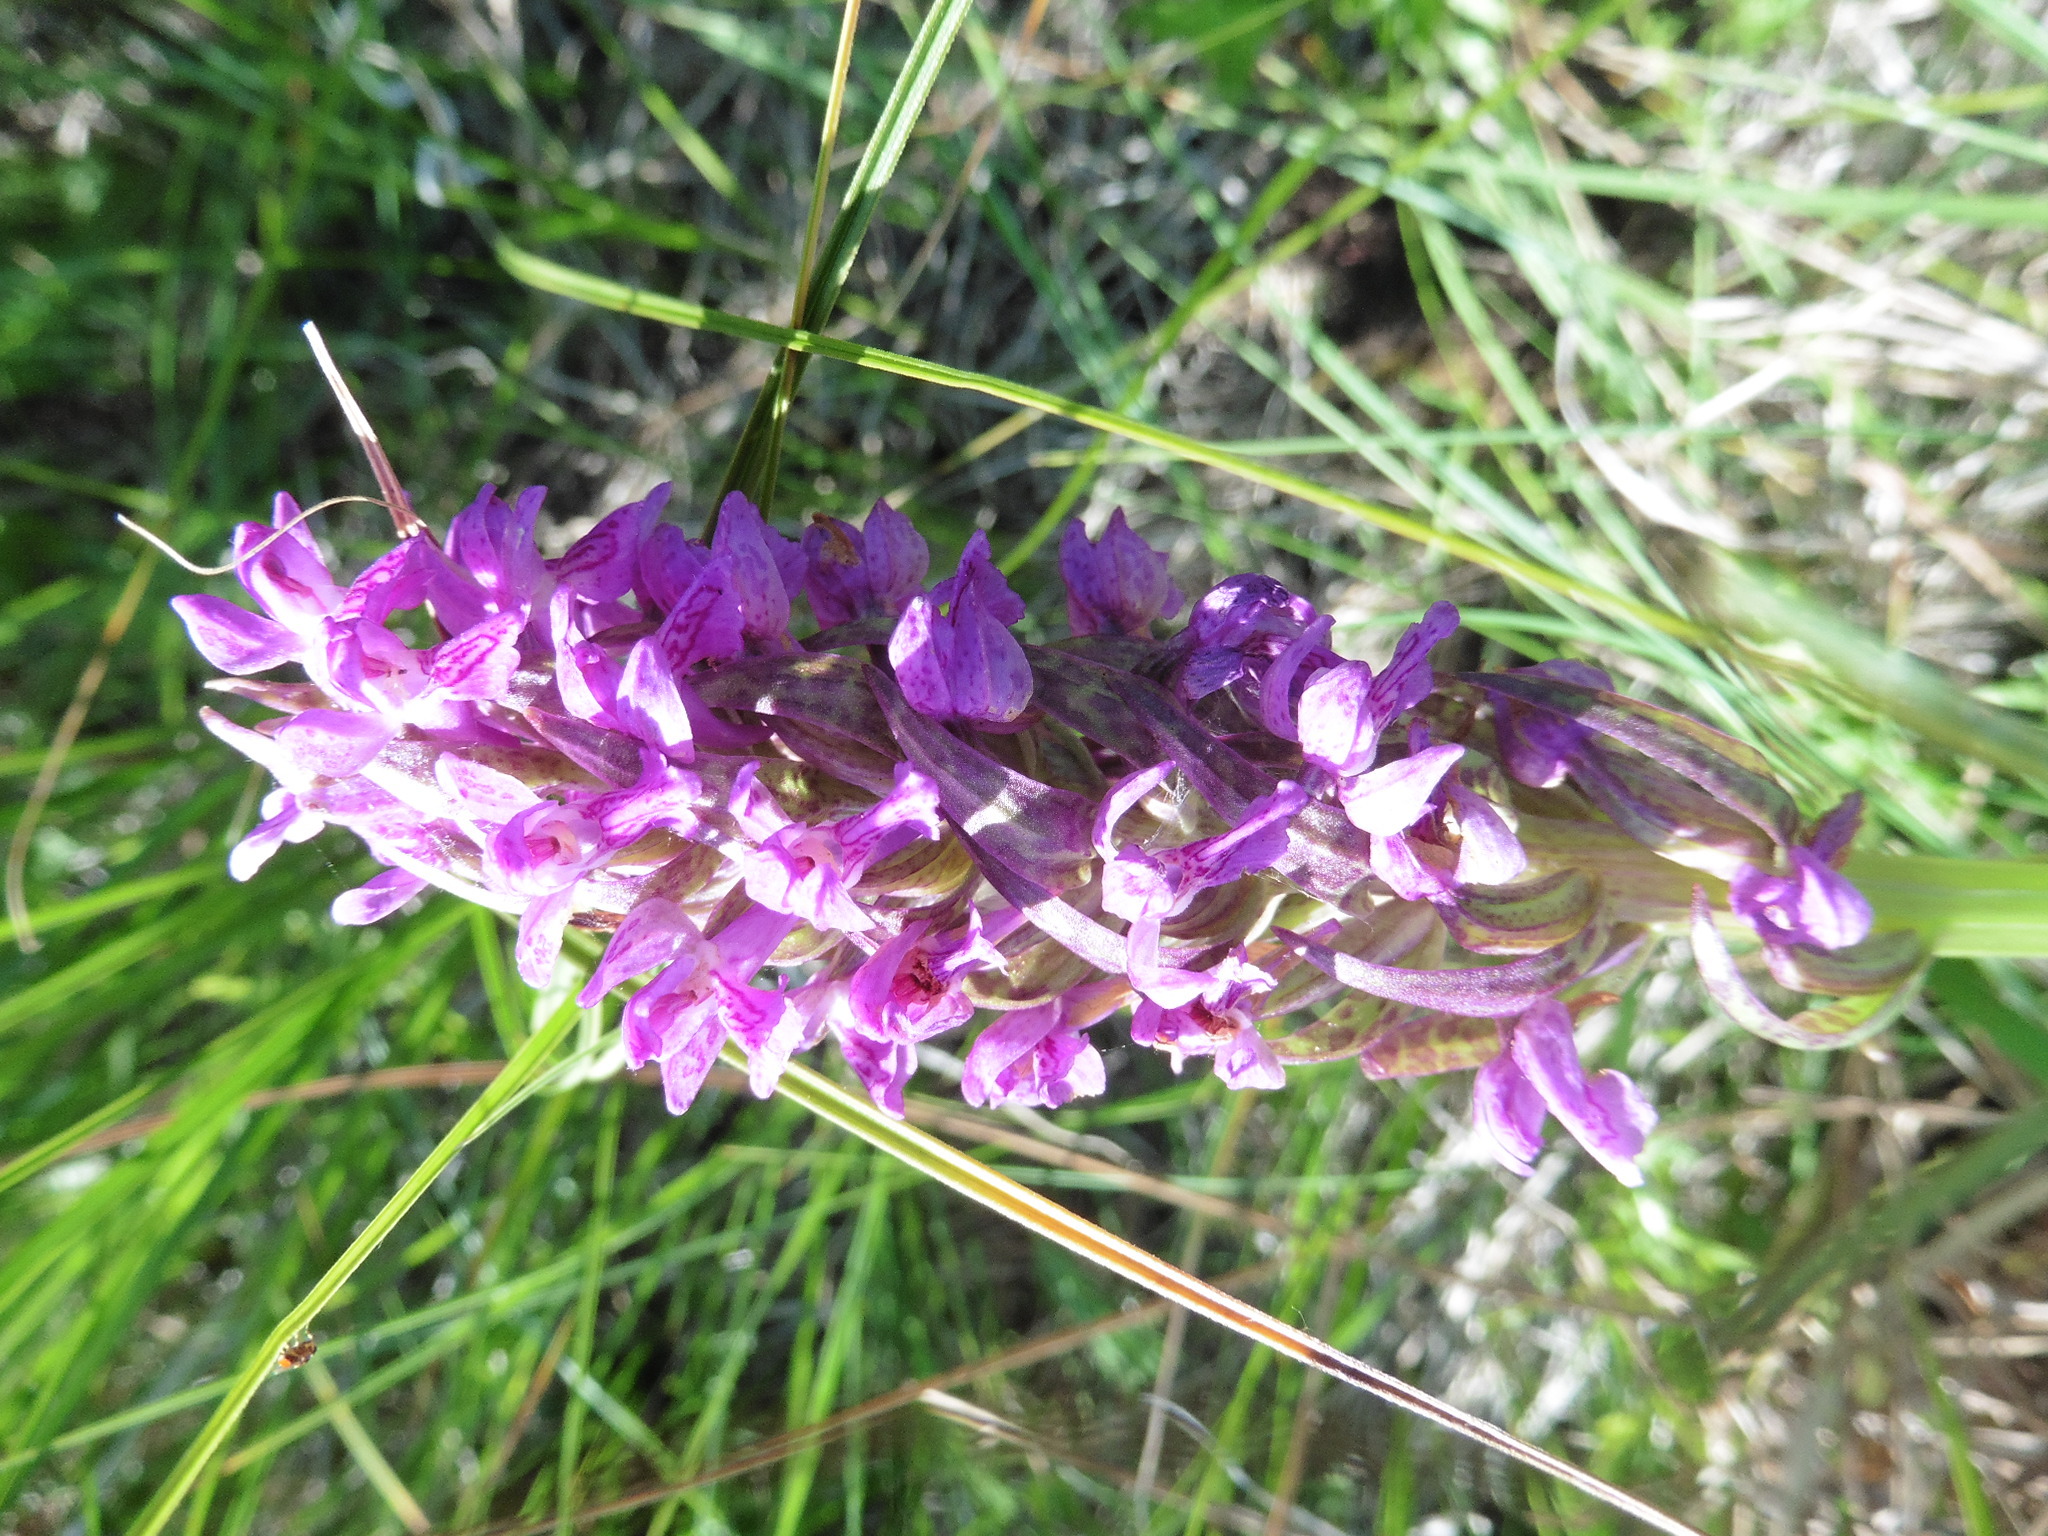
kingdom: Plantae
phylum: Tracheophyta
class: Liliopsida
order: Asparagales
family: Orchidaceae
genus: Dactylorhiza
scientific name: Dactylorhiza incarnata
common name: Early marsh-orchid
